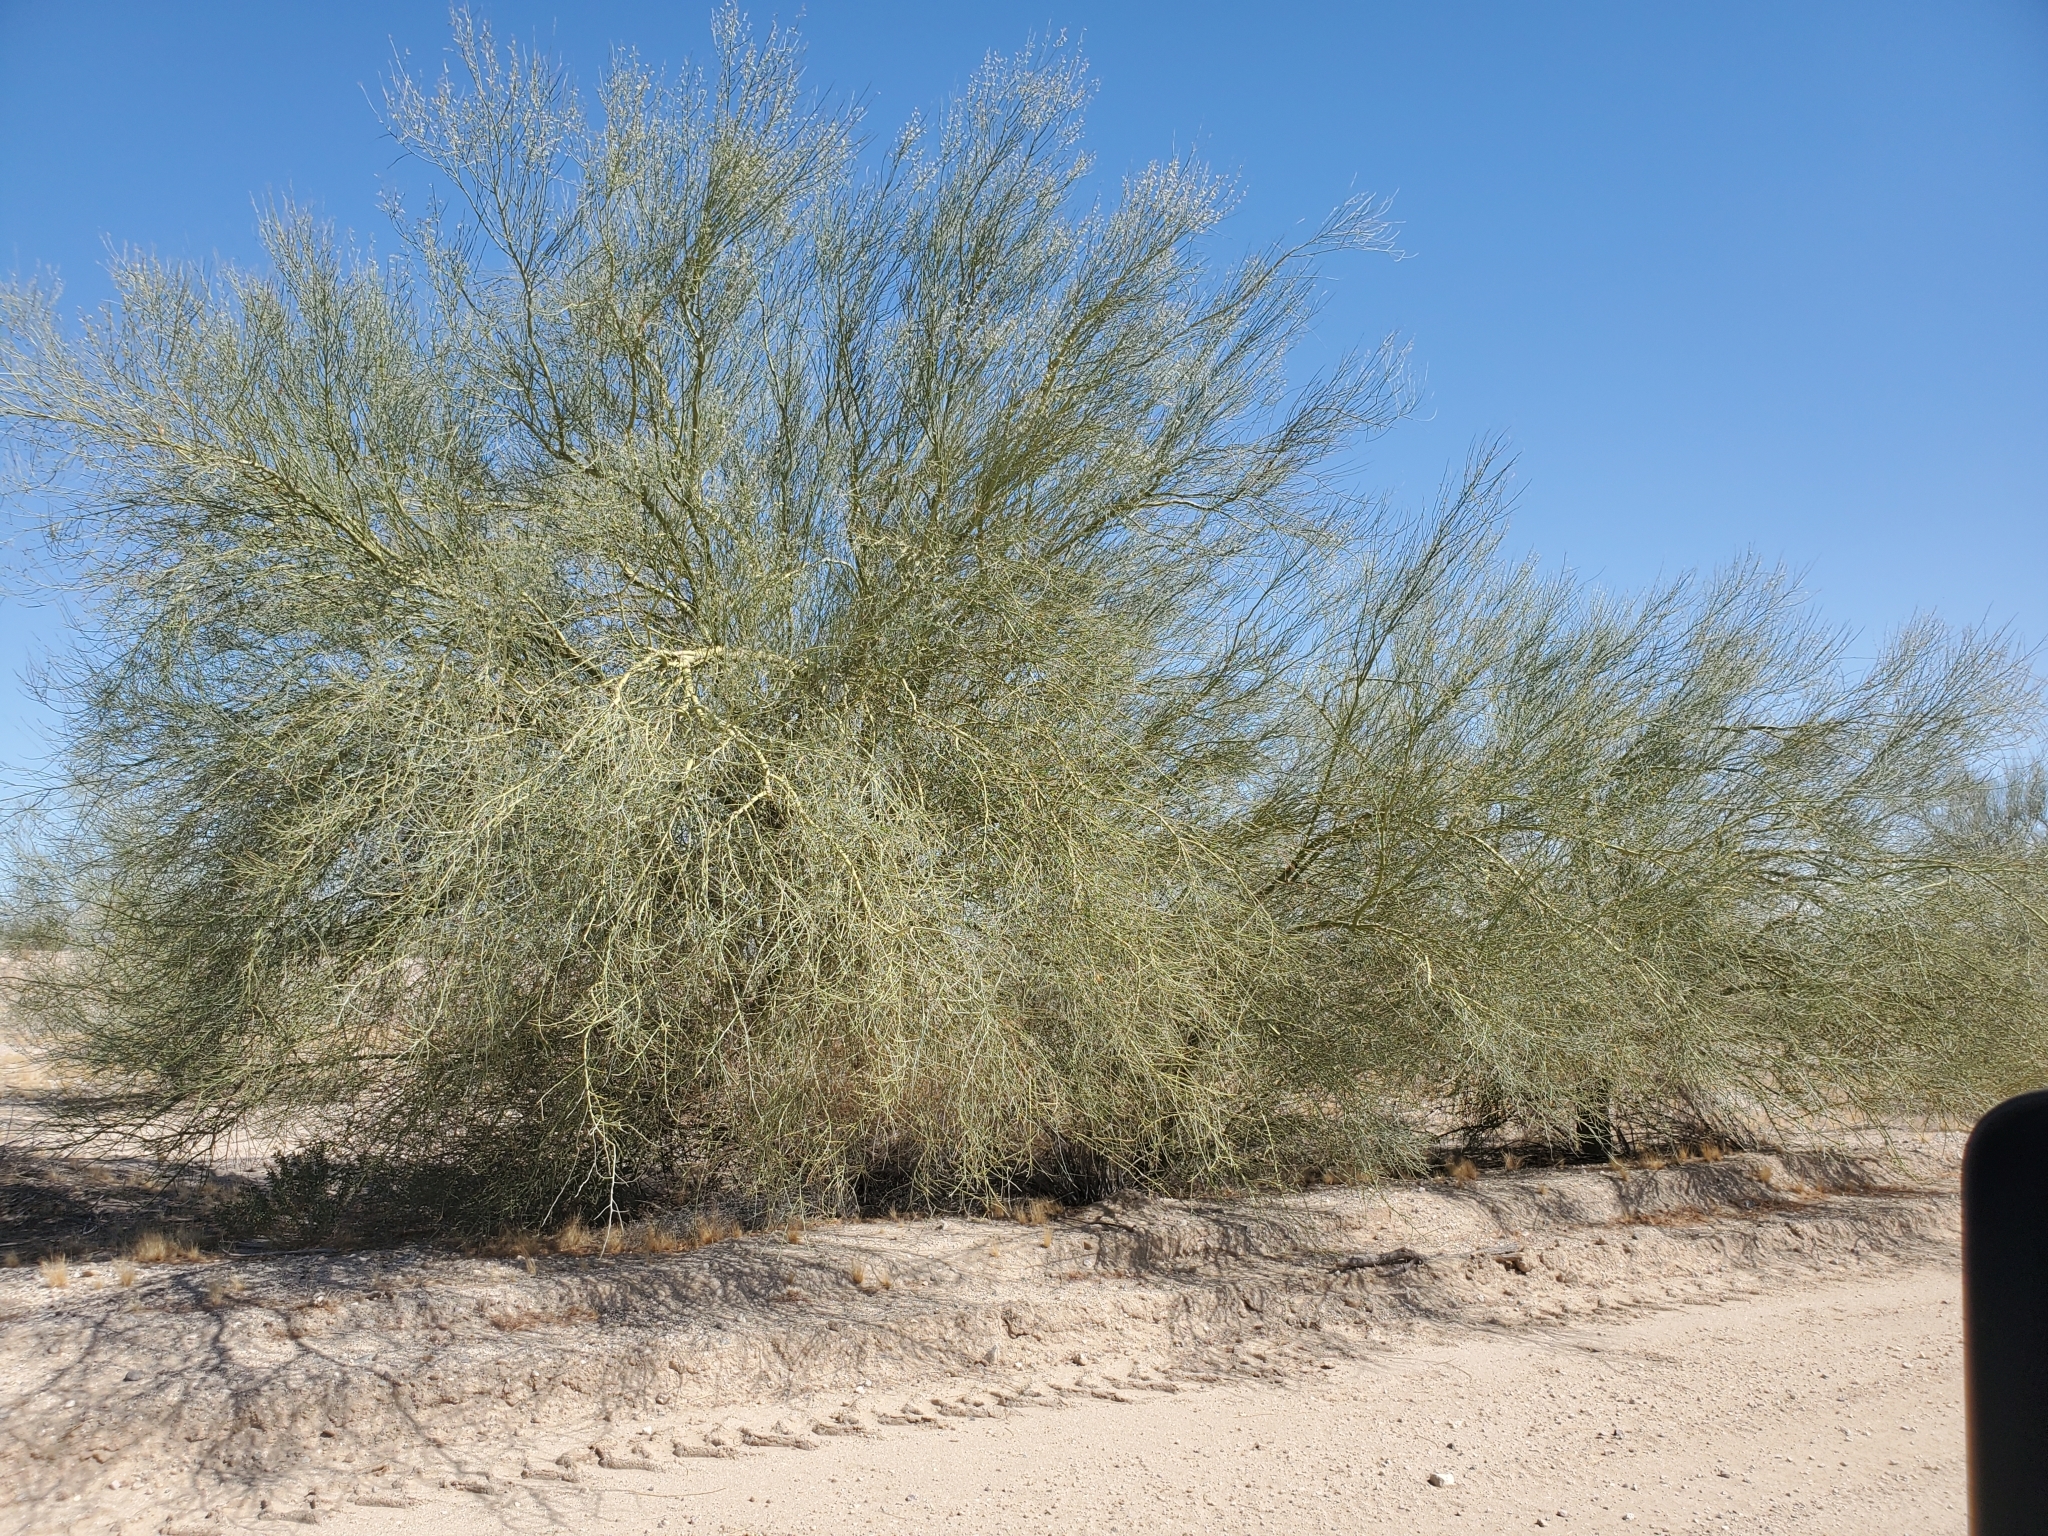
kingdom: Plantae
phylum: Tracheophyta
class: Magnoliopsida
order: Fabales
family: Fabaceae
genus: Parkinsonia
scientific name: Parkinsonia florida
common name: Blue paloverde
